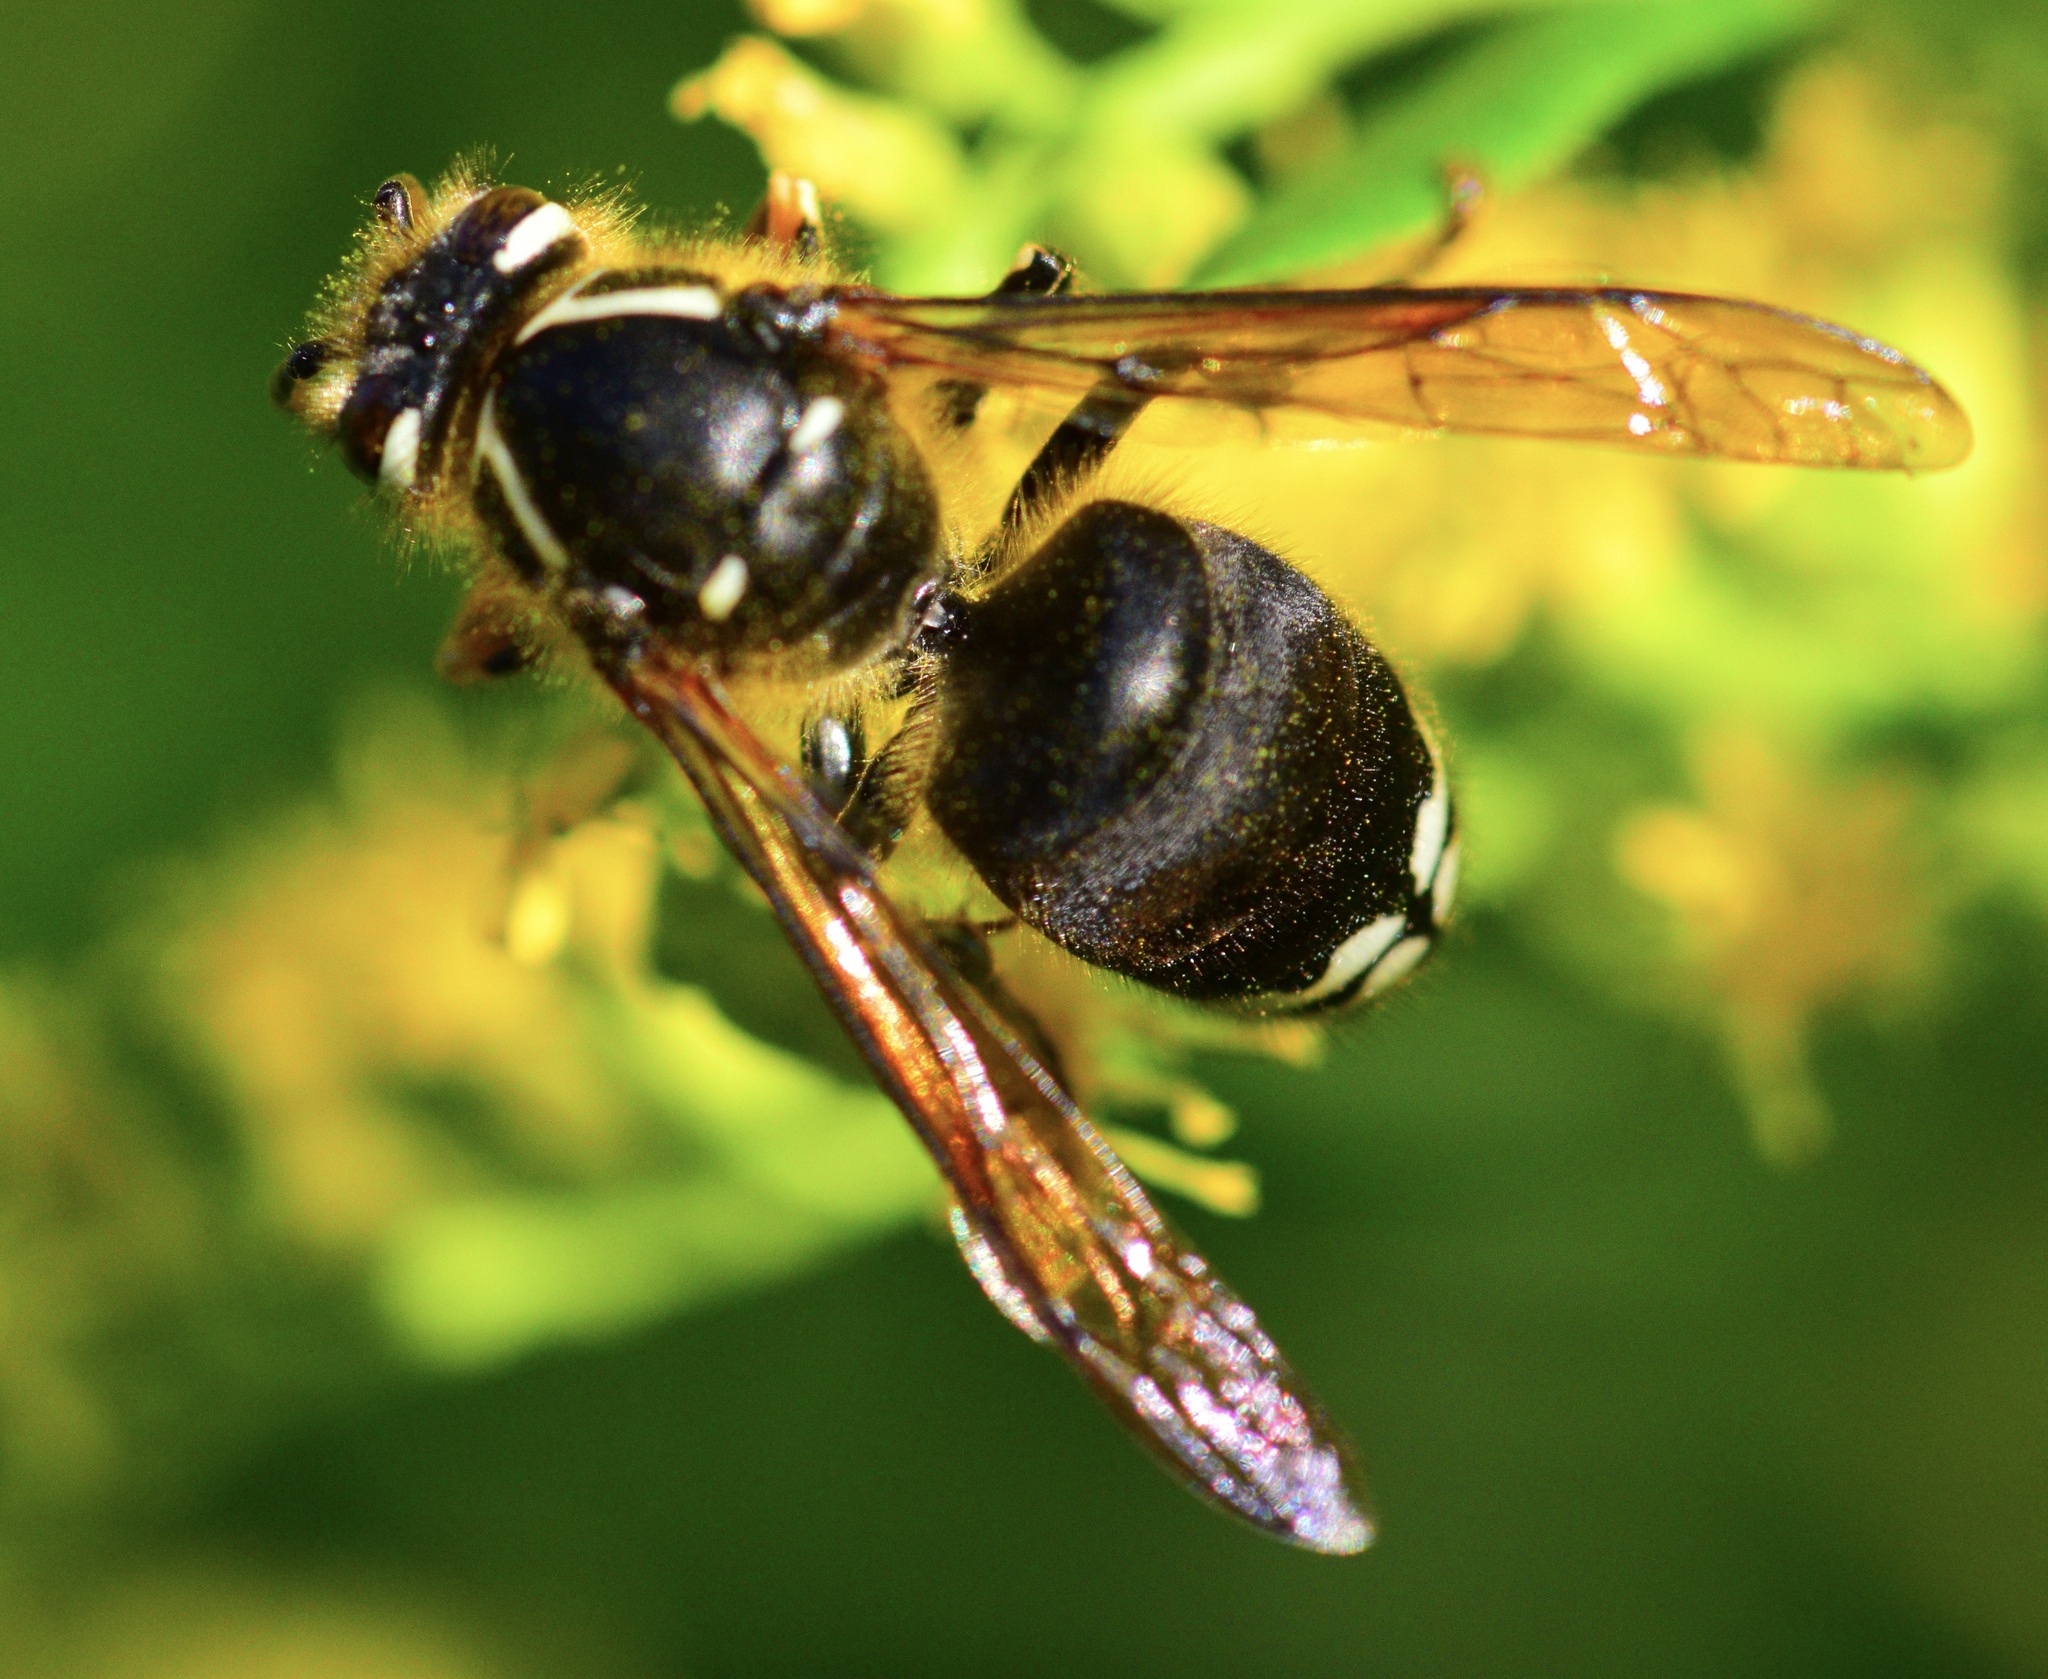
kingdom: Animalia
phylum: Arthropoda
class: Insecta
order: Hymenoptera
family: Vespidae
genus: Dolichovespula
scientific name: Dolichovespula maculata
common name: Bald-faced hornet
